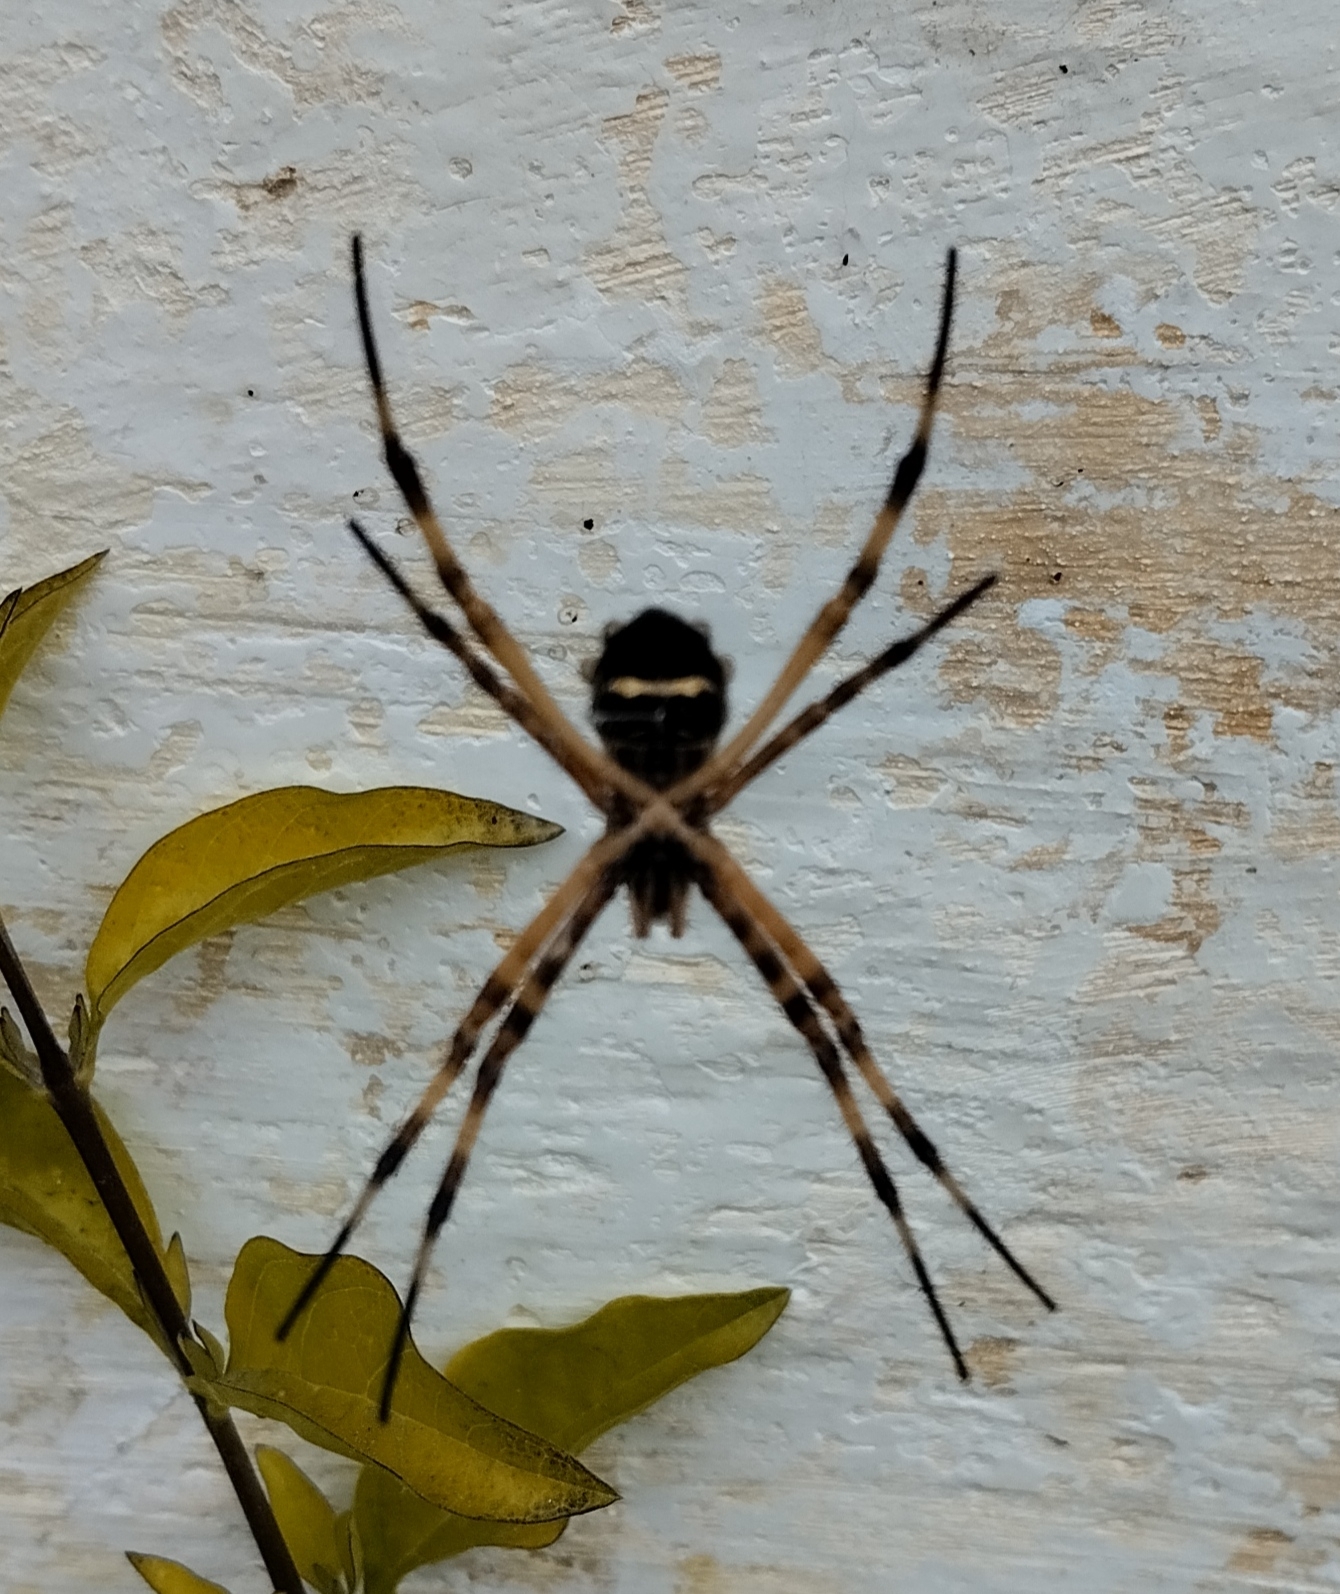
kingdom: Animalia
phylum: Arthropoda
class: Arachnida
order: Araneae
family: Araneidae
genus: Argiope
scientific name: Argiope argentata
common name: Orb weavers
